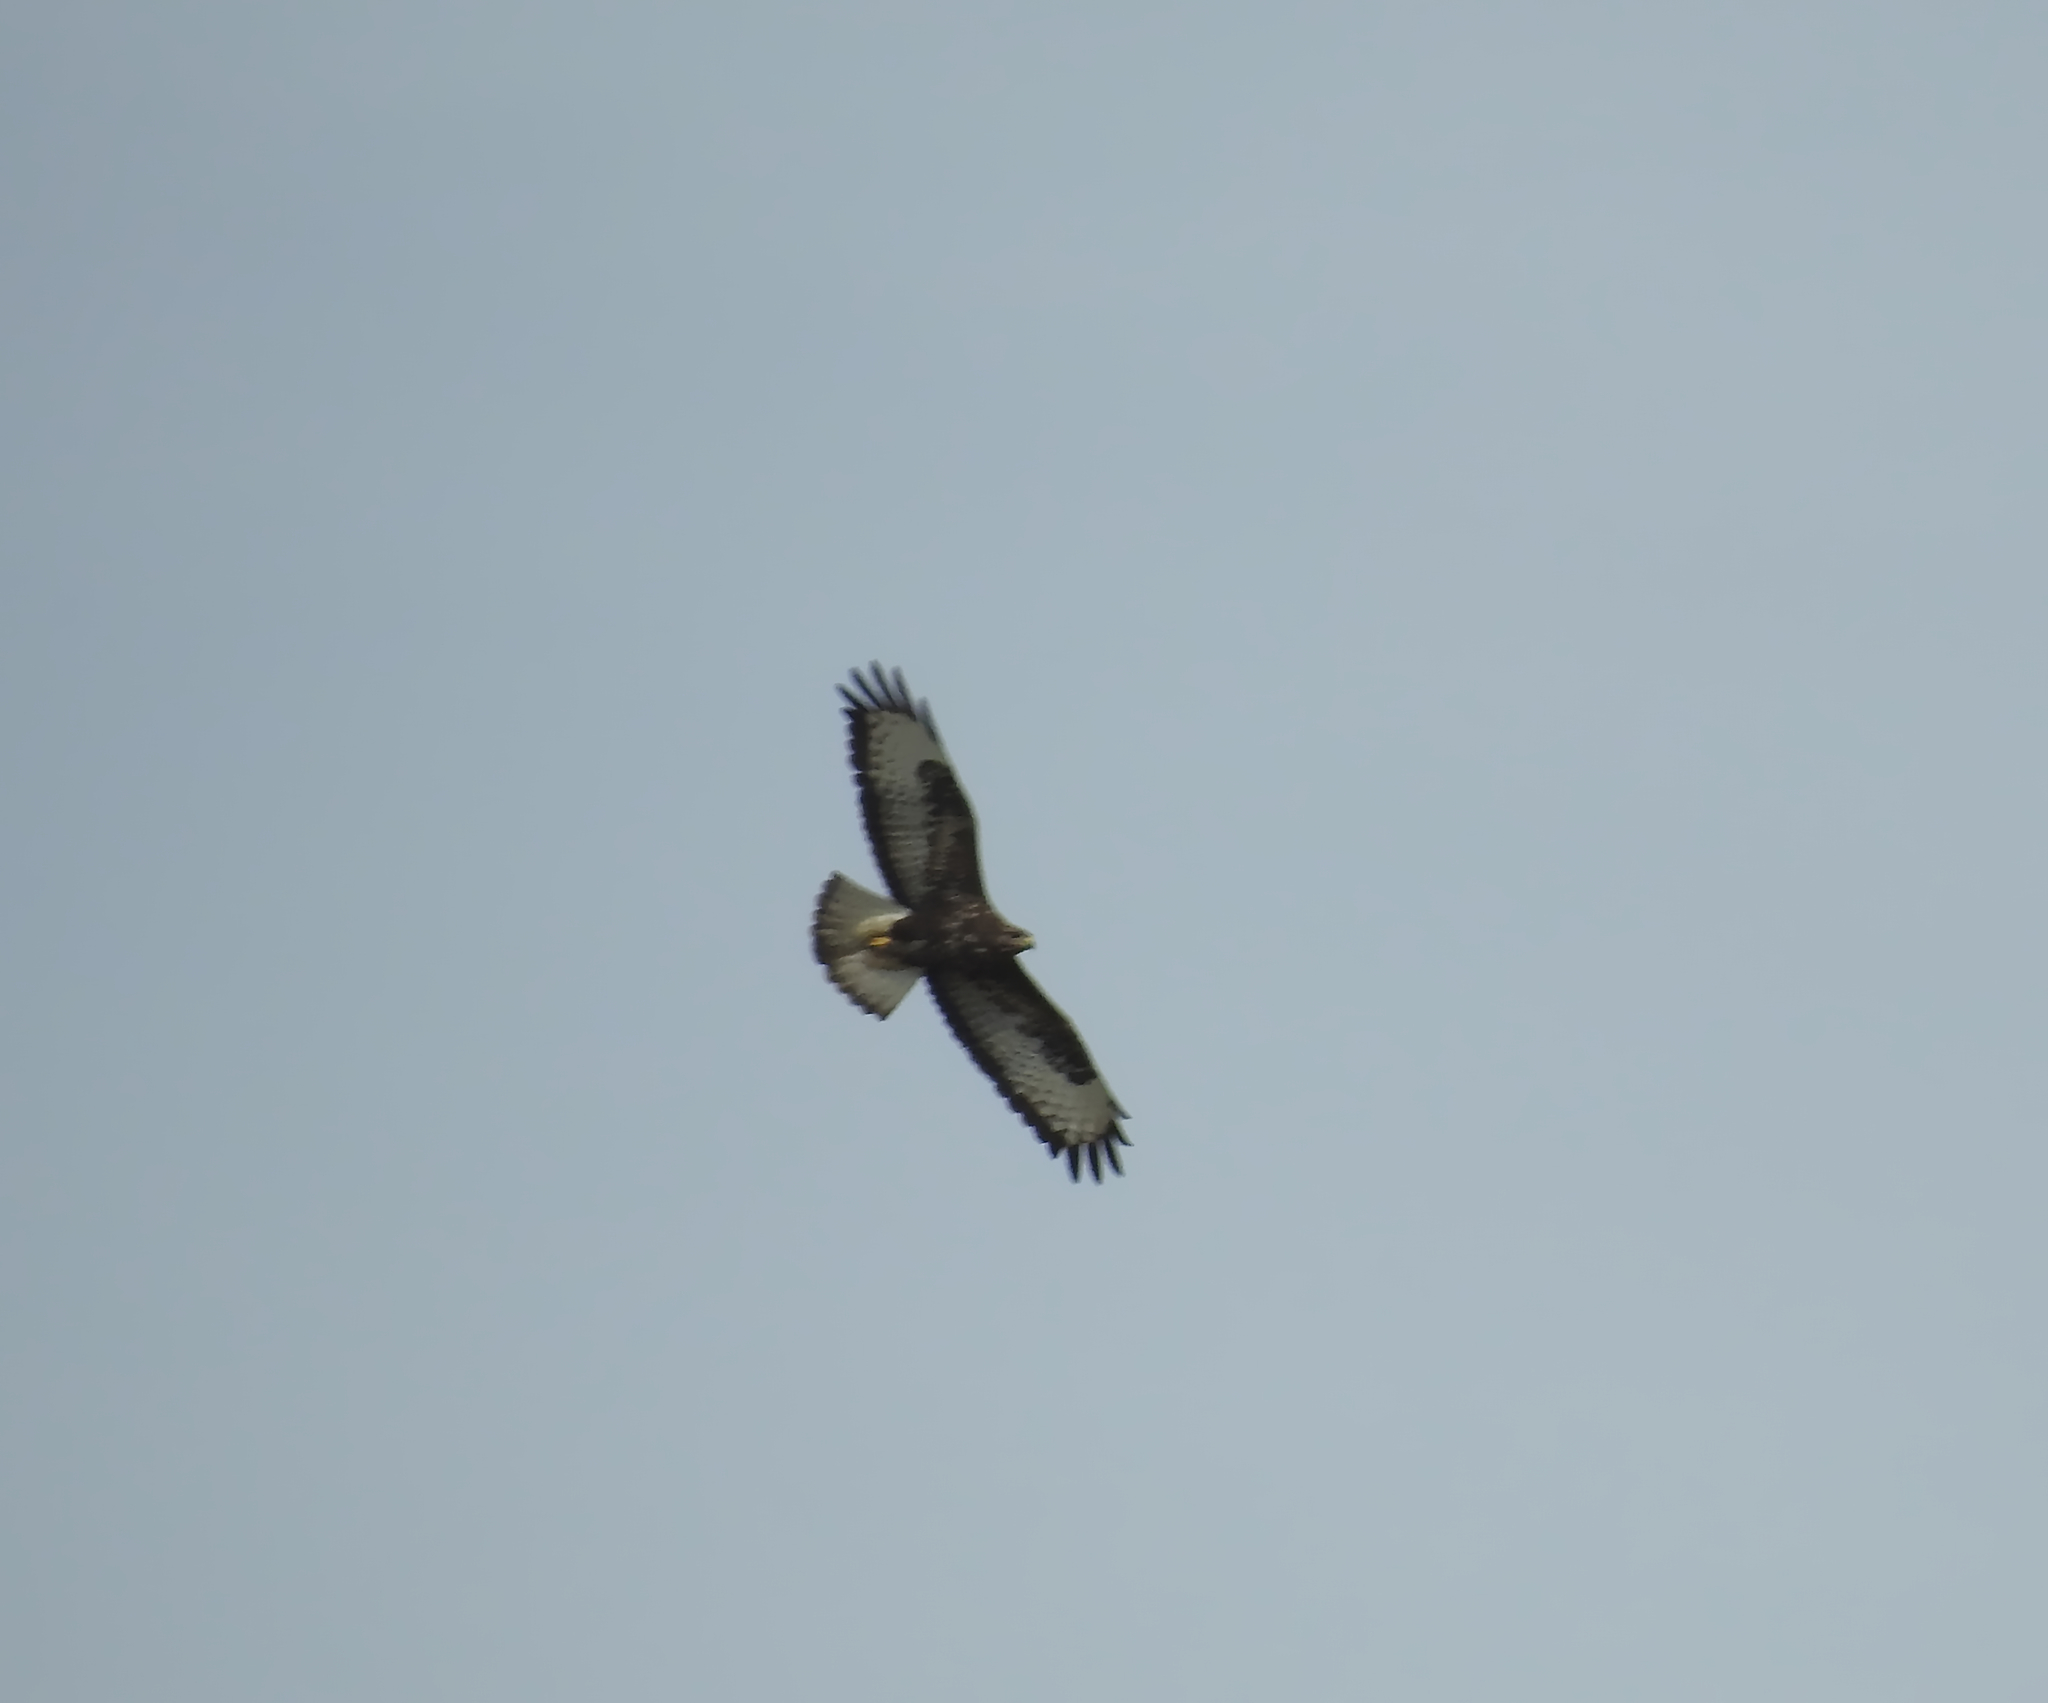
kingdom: Animalia
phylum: Chordata
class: Aves
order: Accipitriformes
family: Accipitridae
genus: Buteo
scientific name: Buteo buteo
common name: Common buzzard
